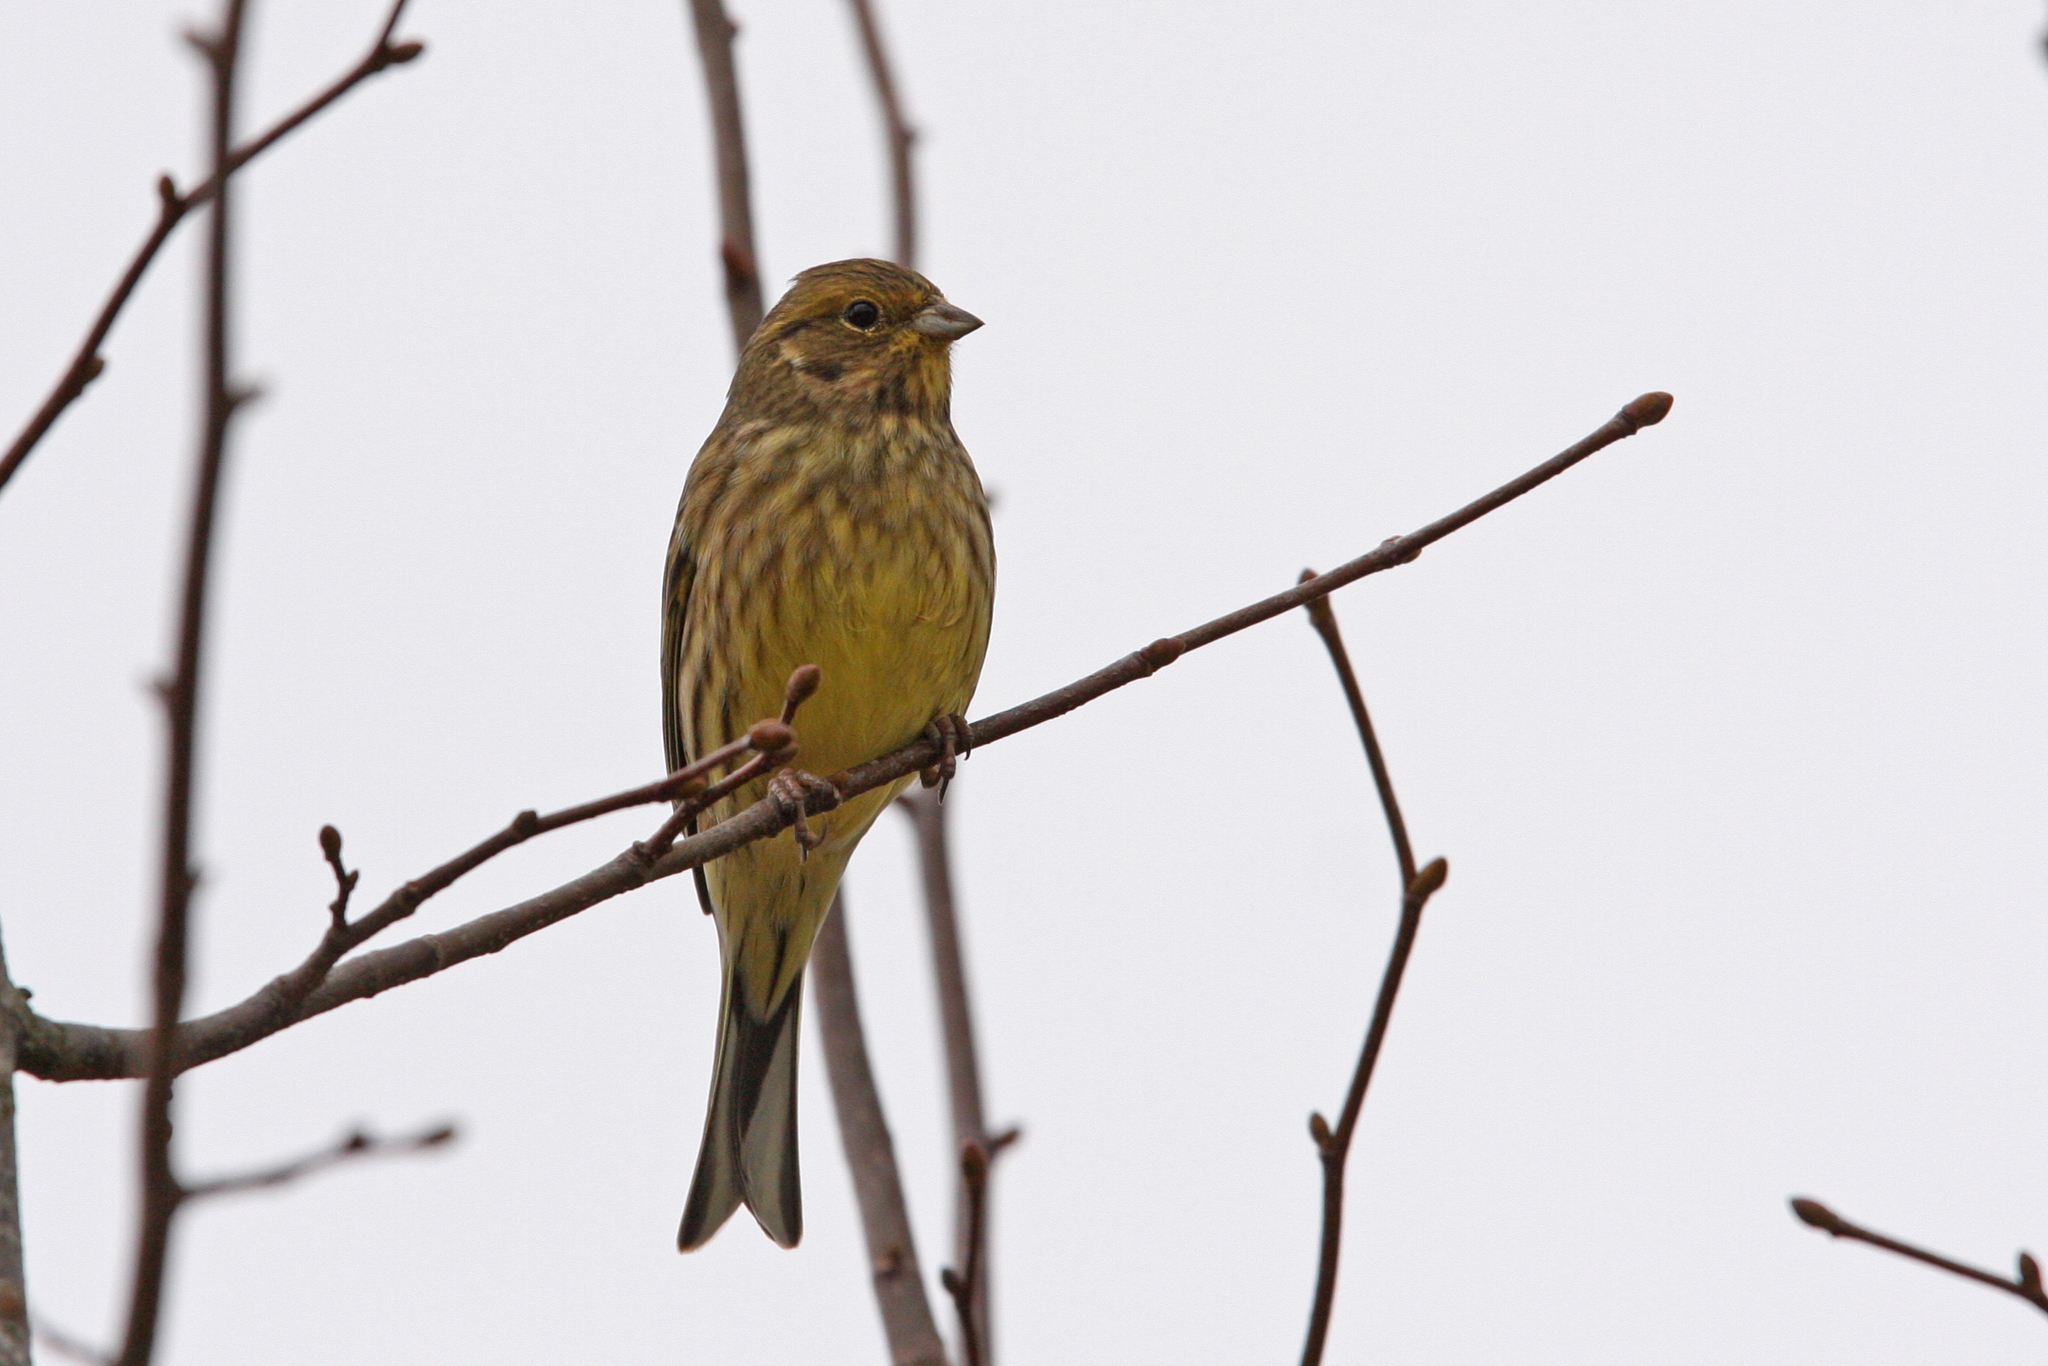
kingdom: Animalia
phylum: Chordata
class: Aves
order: Passeriformes
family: Emberizidae
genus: Emberiza
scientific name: Emberiza citrinella
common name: Yellowhammer
